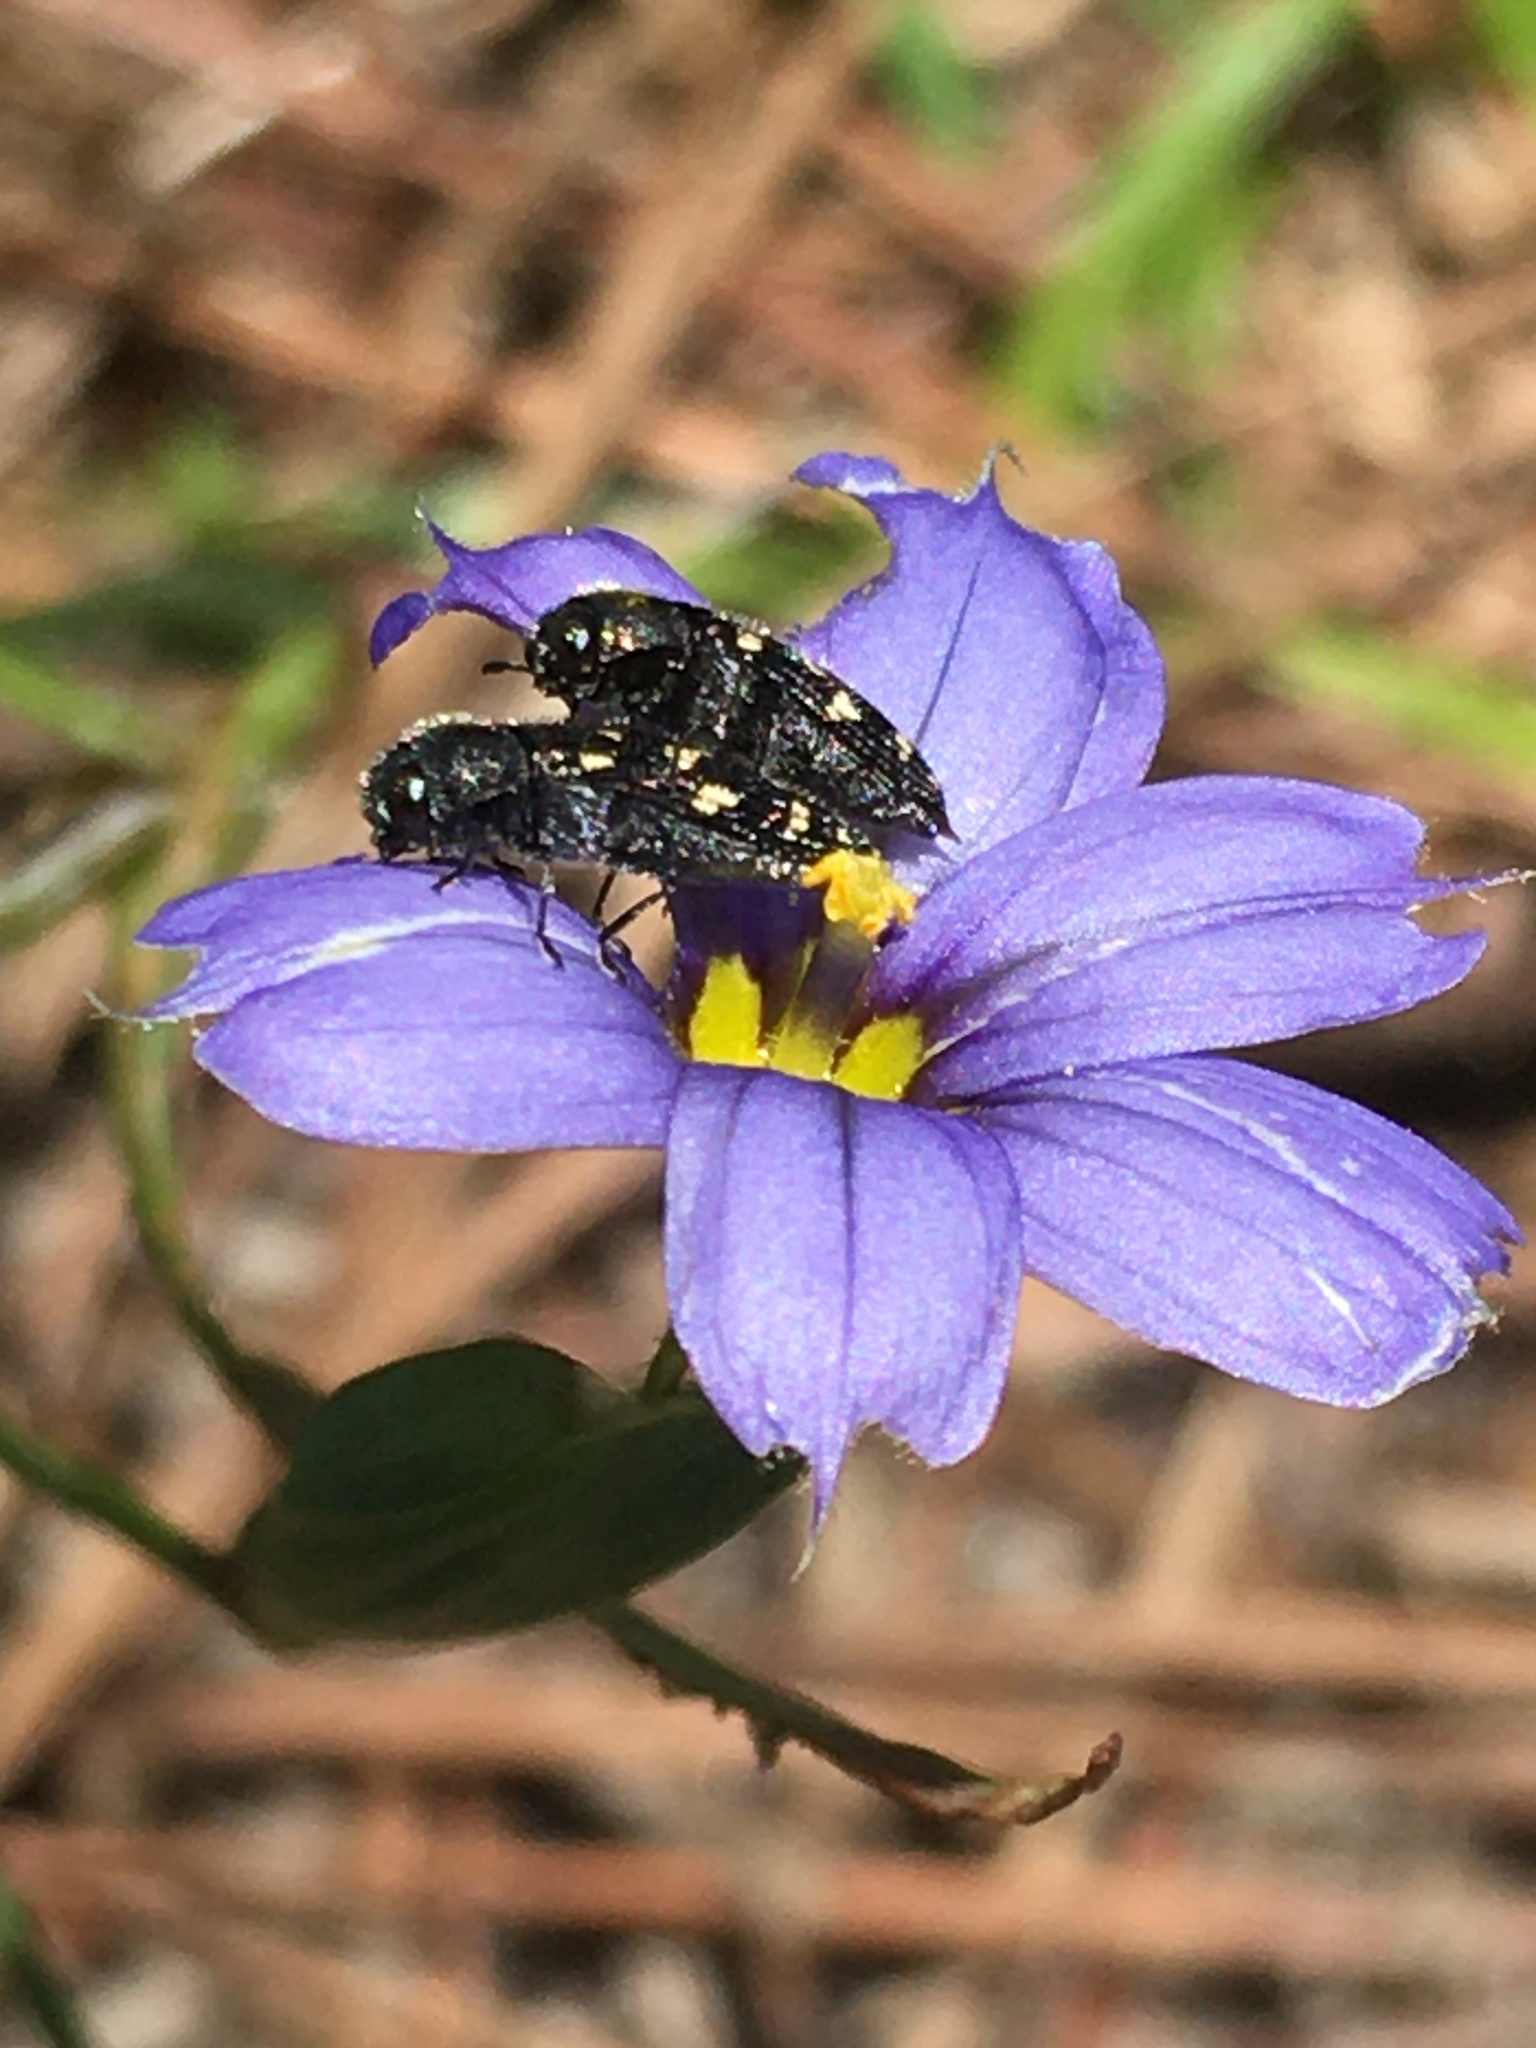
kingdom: Animalia
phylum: Arthropoda
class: Insecta
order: Coleoptera
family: Buprestidae
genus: Acmaeodera
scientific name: Acmaeodera tubulus
